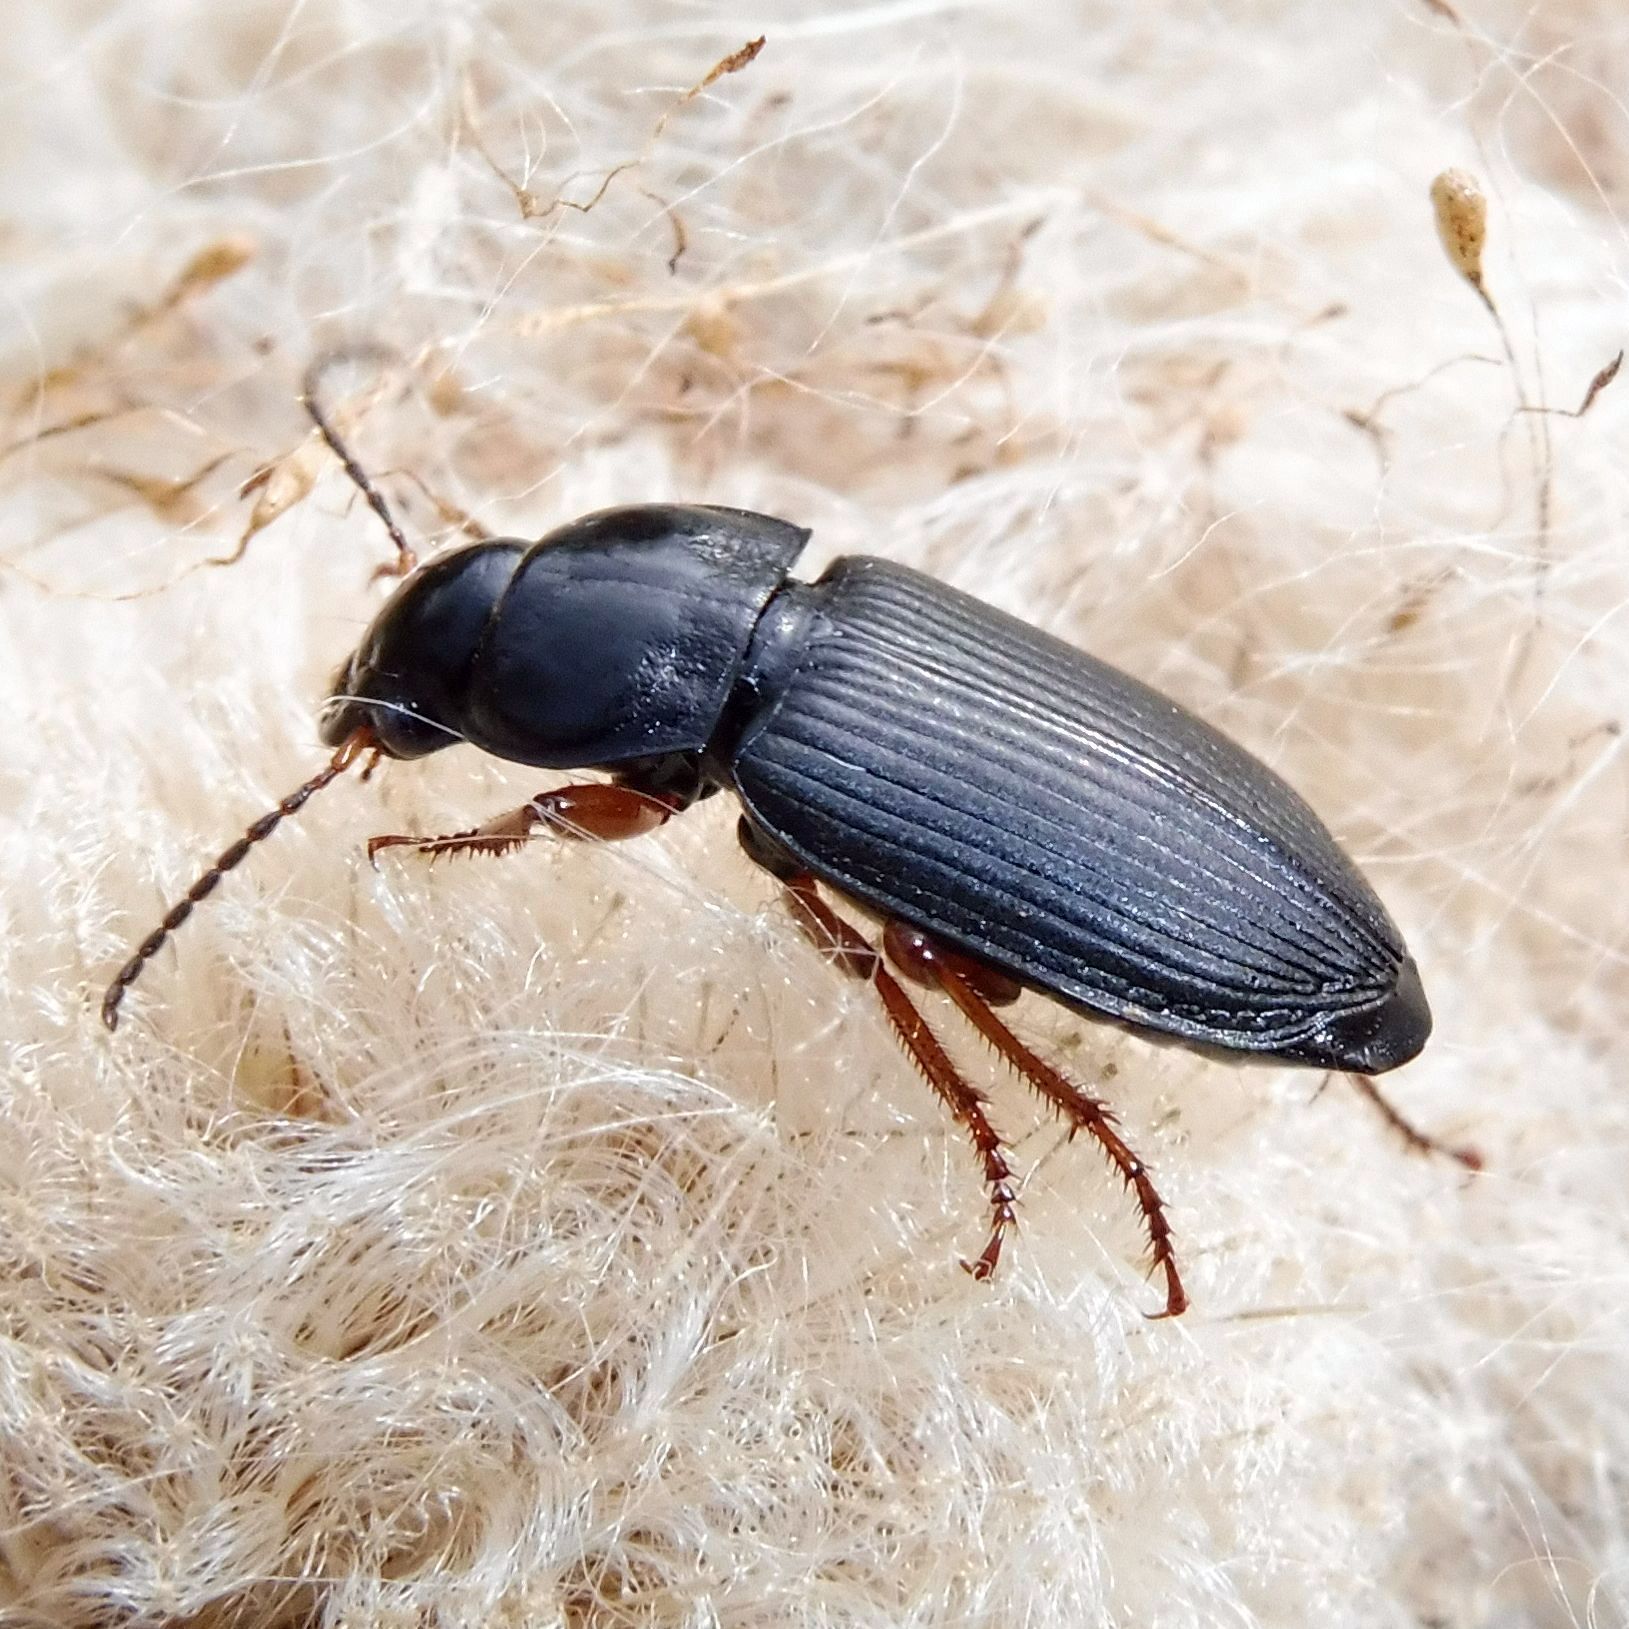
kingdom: Animalia
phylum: Arthropoda
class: Insecta
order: Coleoptera
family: Carabidae
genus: Anisodactylus
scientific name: Anisodactylus binotatus
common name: Two-marked harp ground beetle
